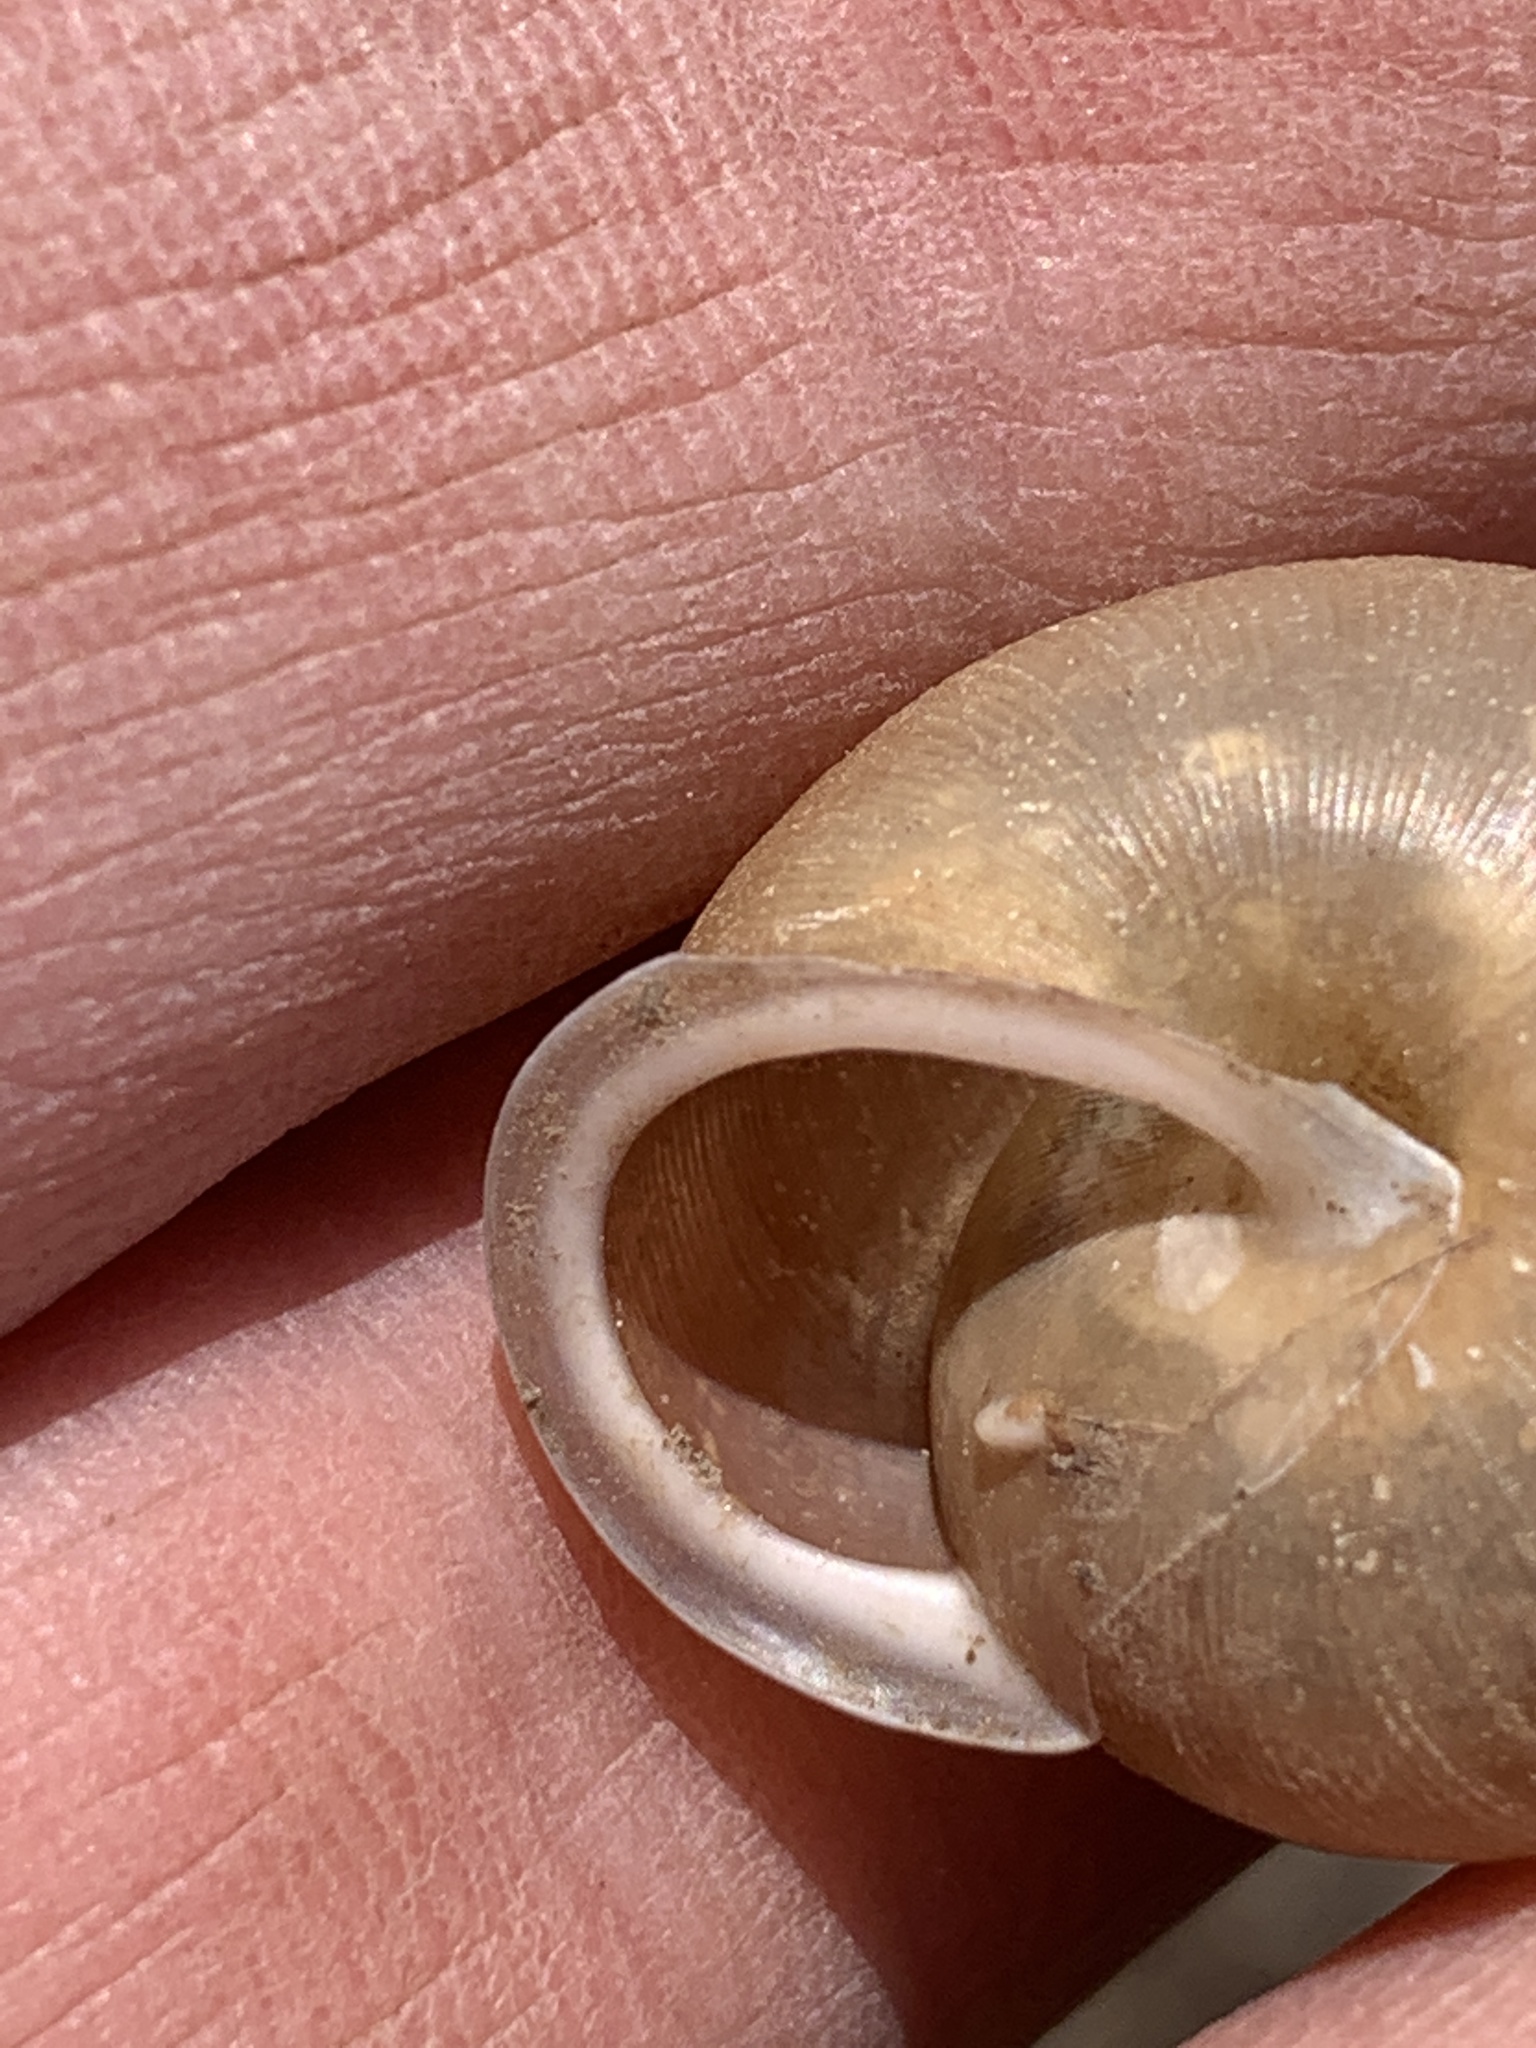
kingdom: Animalia
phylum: Mollusca
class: Gastropoda
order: Stylommatophora
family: Polygyridae
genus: Mesodon
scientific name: Mesodon thyroidus
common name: White-lip globe
